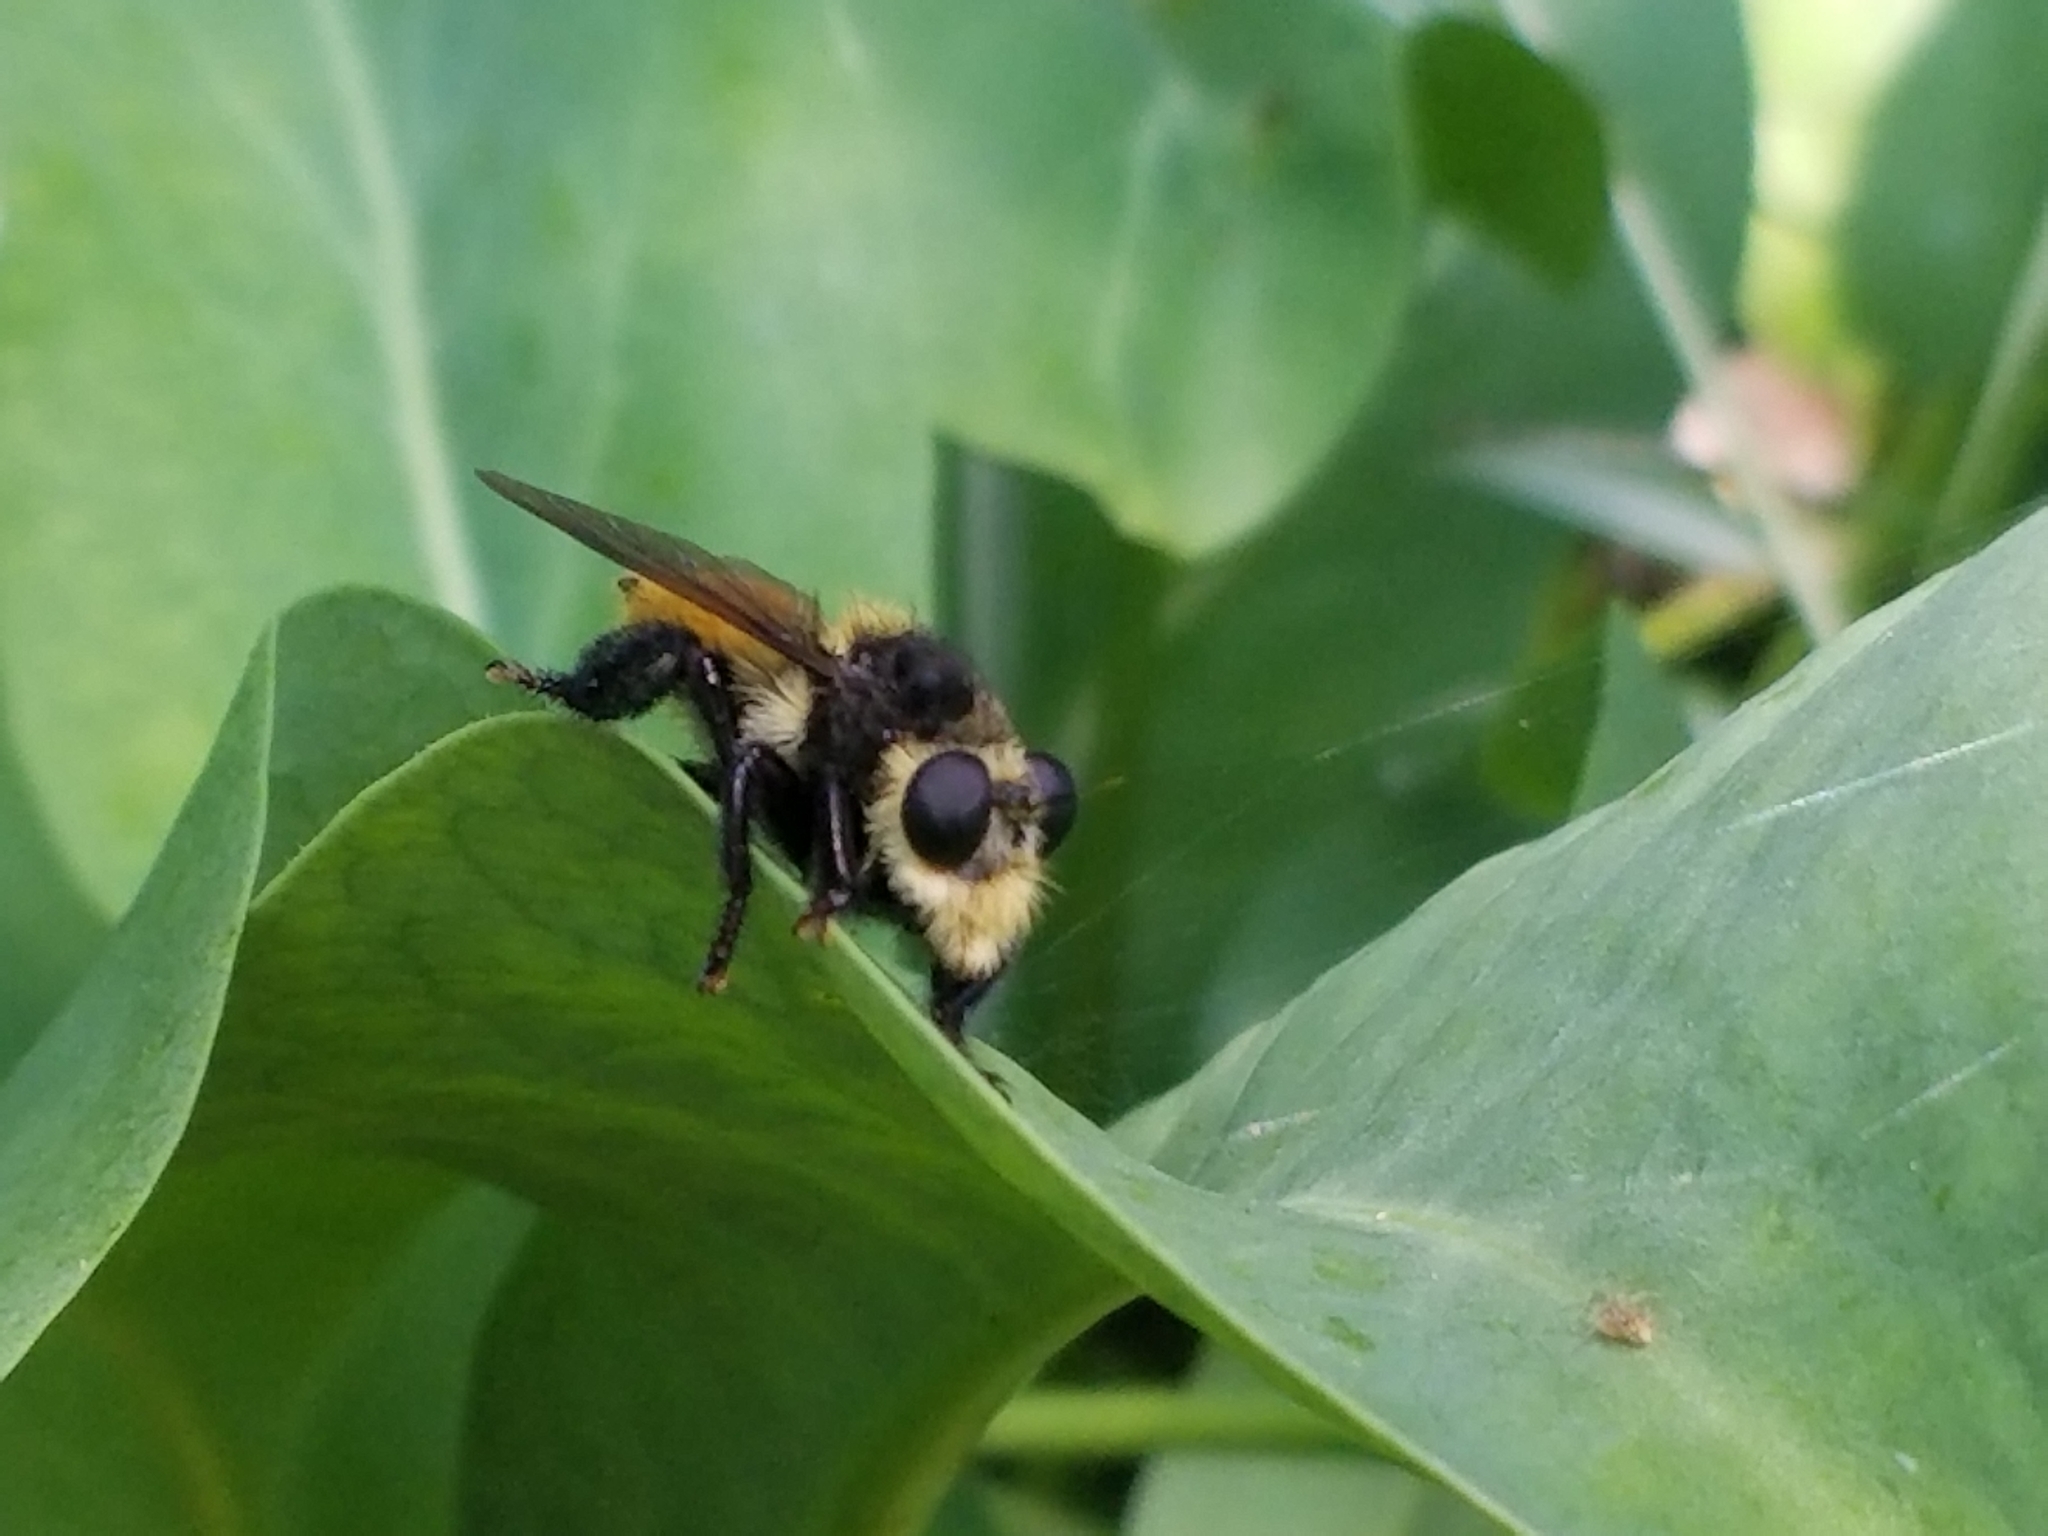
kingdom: Animalia
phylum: Arthropoda
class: Insecta
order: Diptera
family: Asilidae
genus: Mallophora
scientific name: Mallophora fautrix
